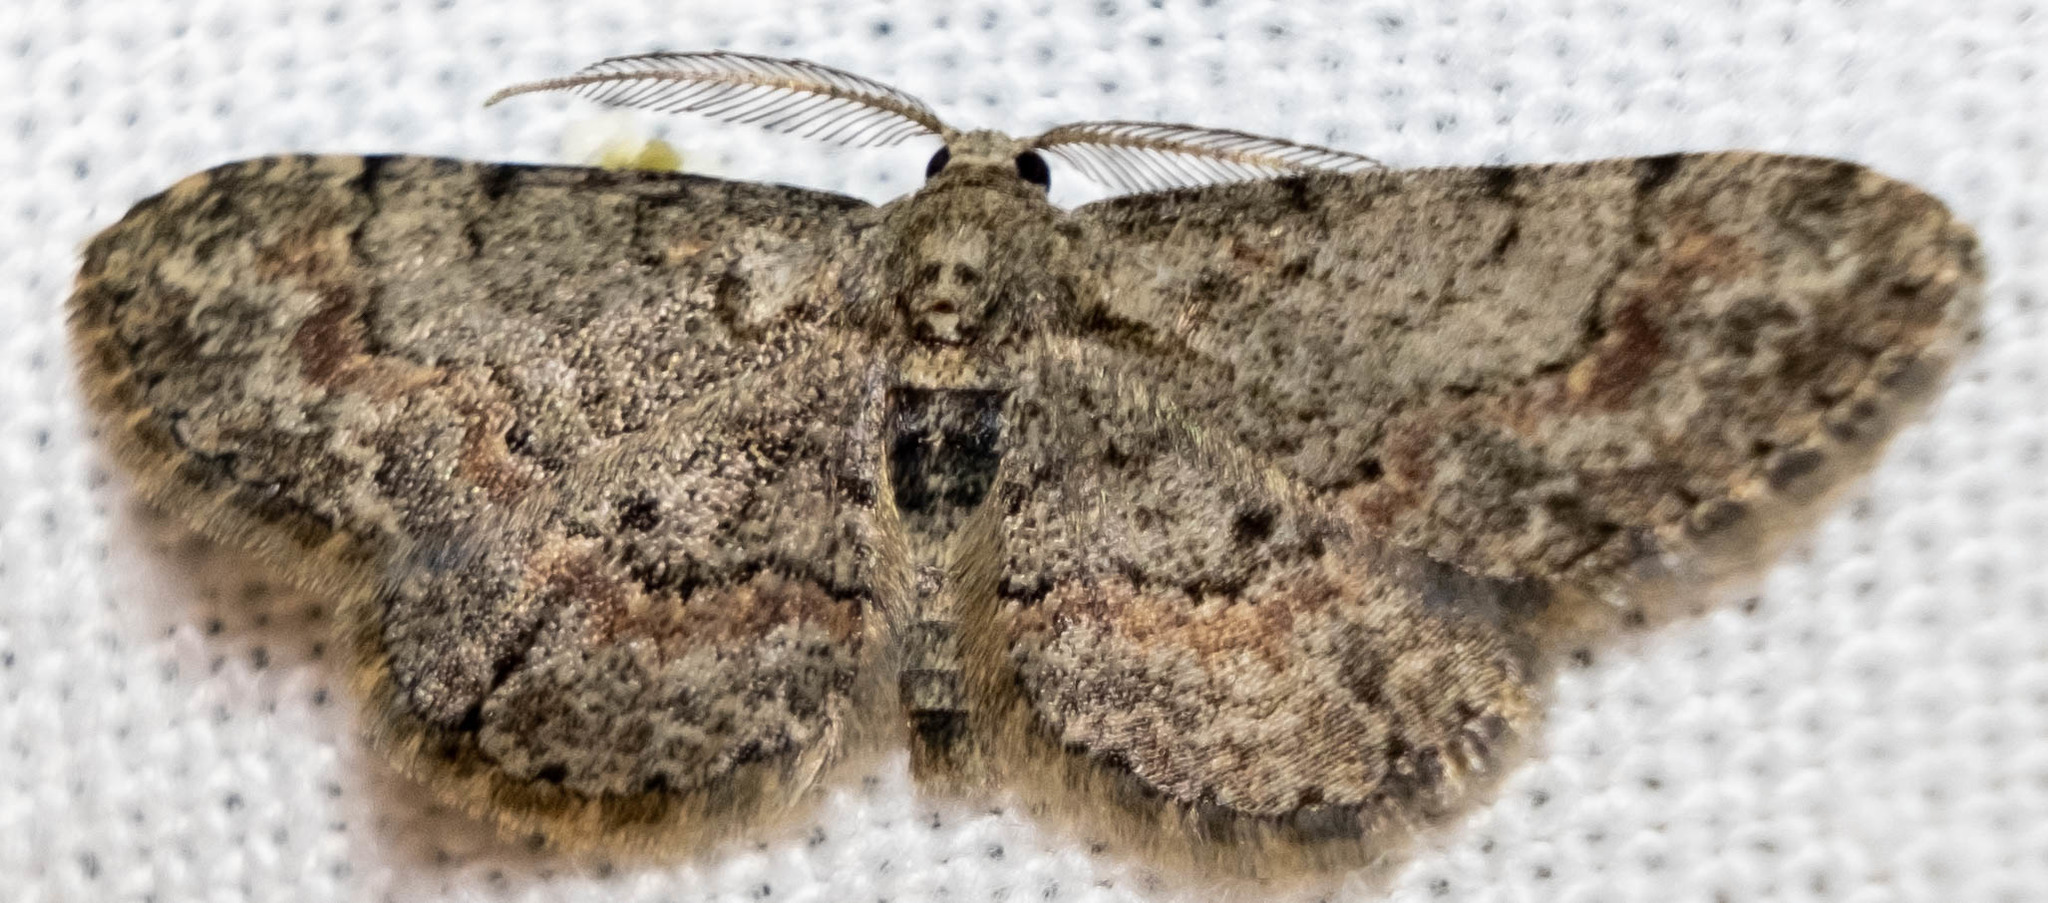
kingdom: Animalia
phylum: Arthropoda
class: Insecta
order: Lepidoptera
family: Geometridae
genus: Glenoides
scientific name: Glenoides texanaria
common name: Texas gray
